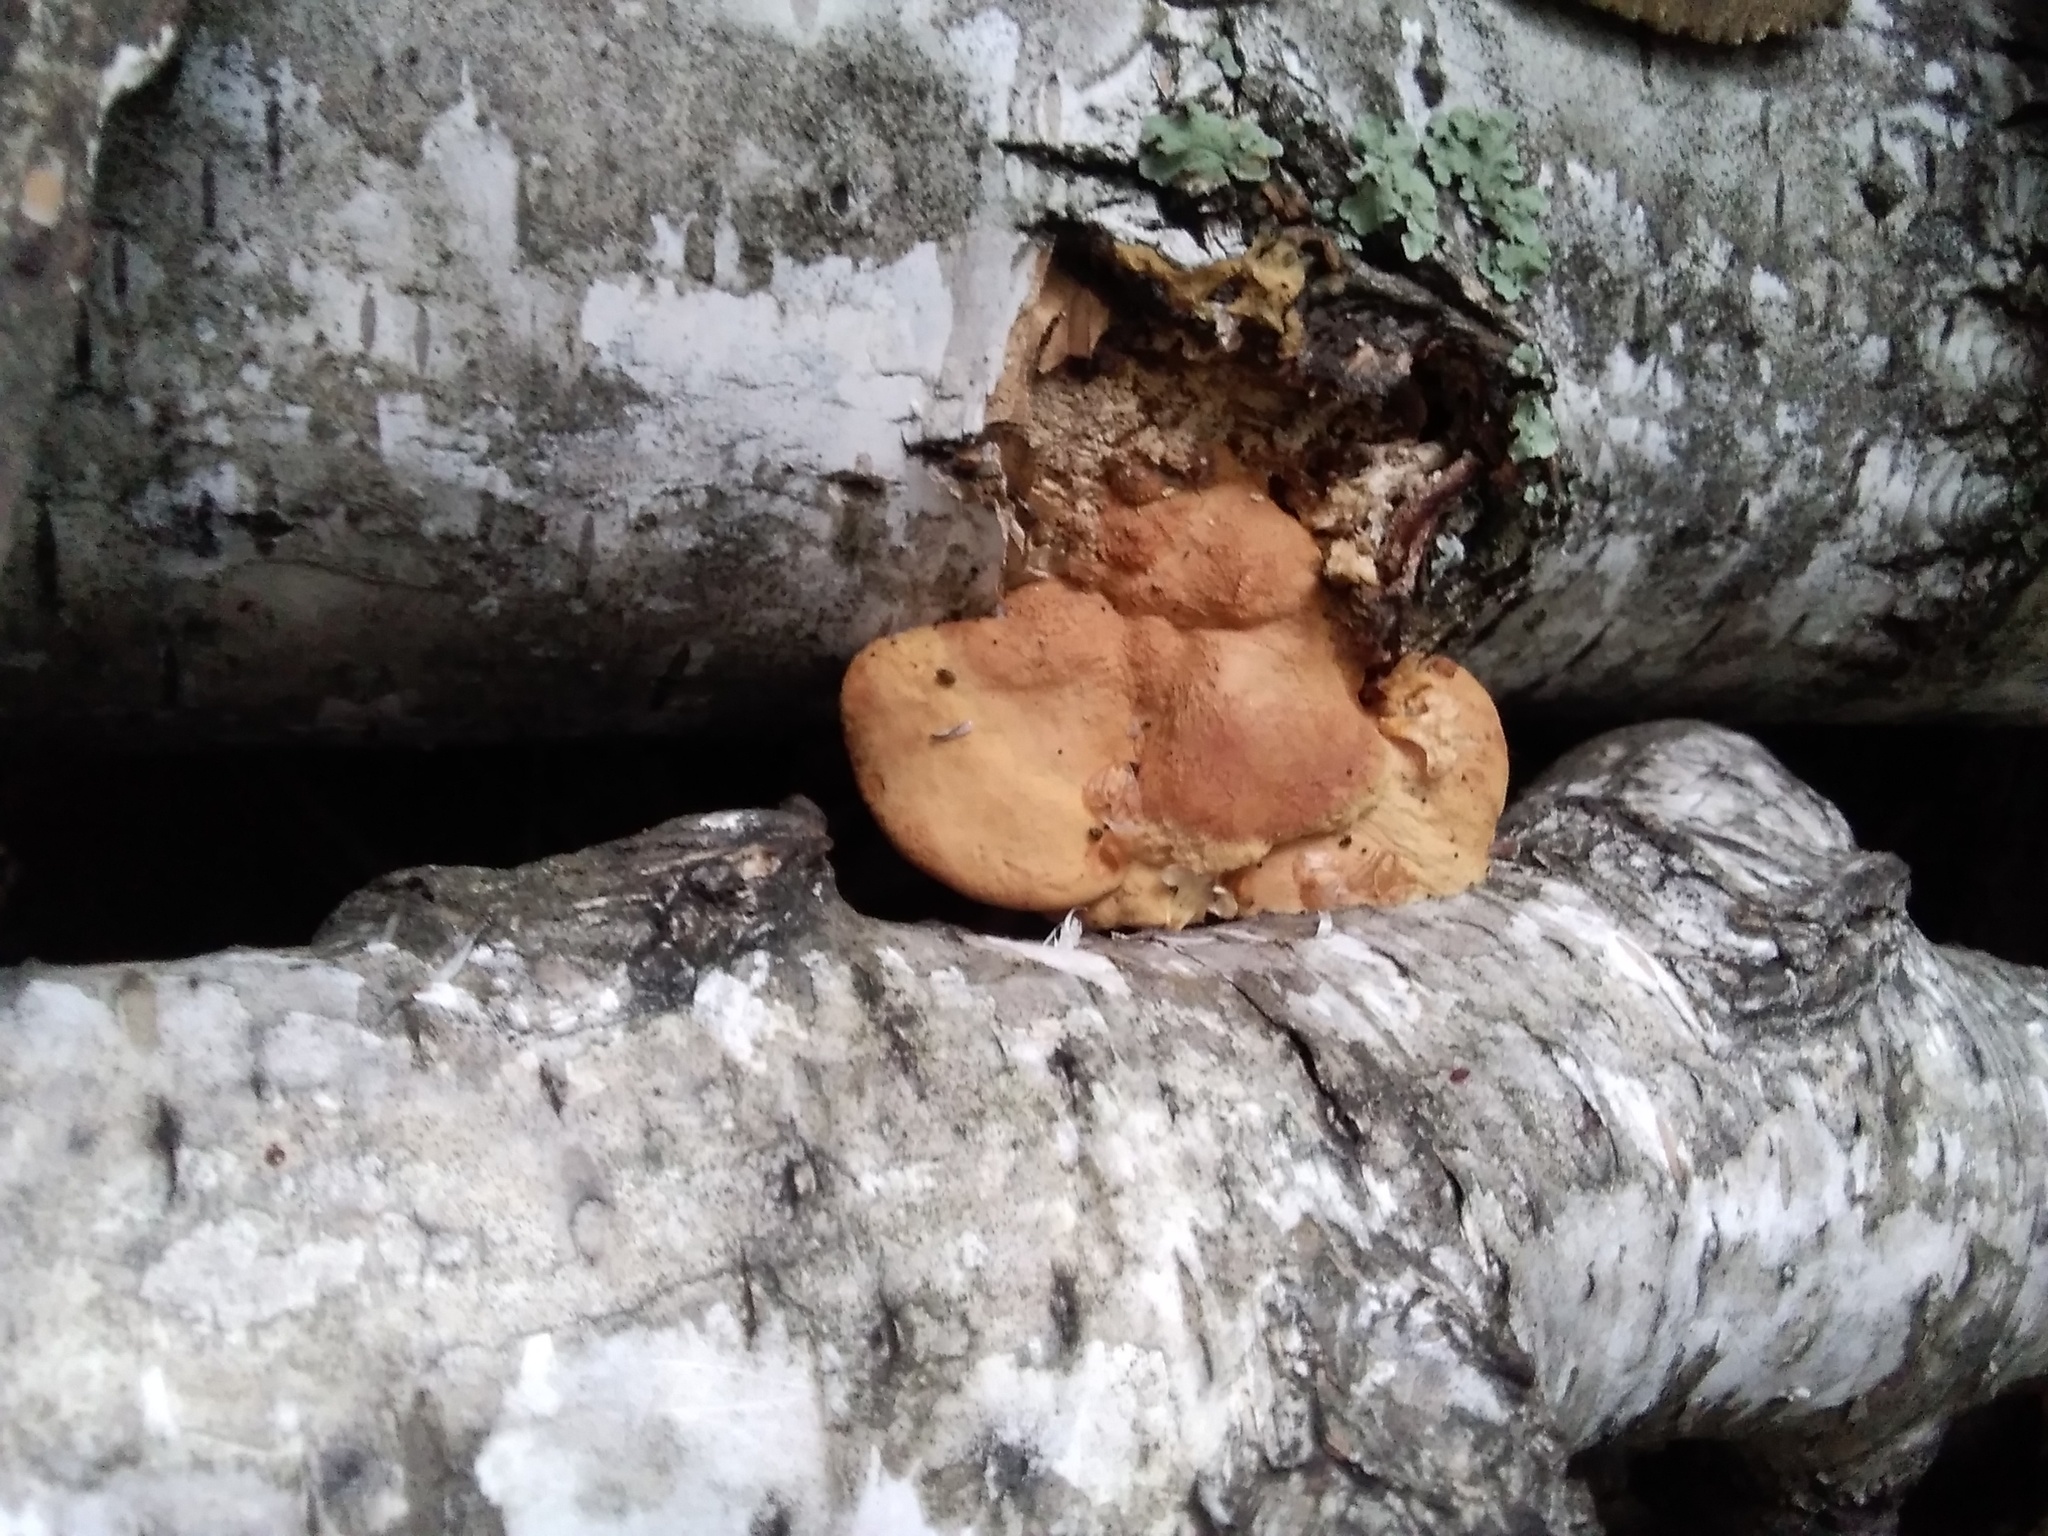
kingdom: Fungi
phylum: Basidiomycota
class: Agaricomycetes
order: Polyporales
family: Phanerochaetaceae
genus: Hapalopilus
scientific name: Hapalopilus rutilans
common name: Tender nesting polypore
